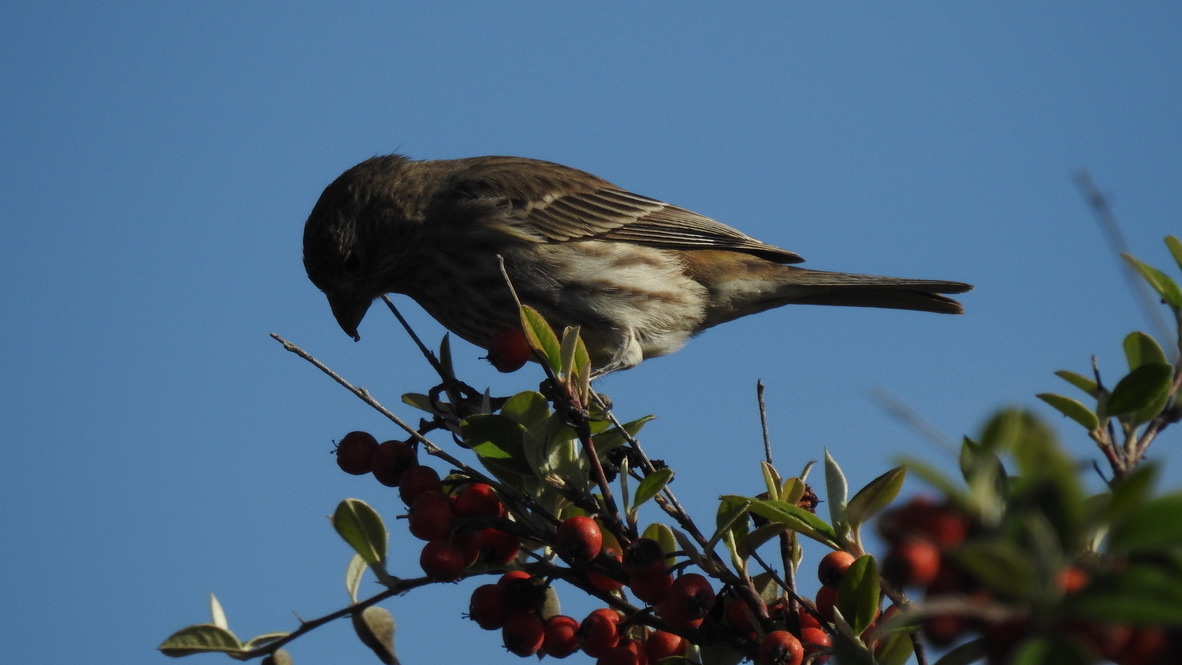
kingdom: Animalia
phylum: Chordata
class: Aves
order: Passeriformes
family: Fringillidae
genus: Haemorhous
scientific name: Haemorhous mexicanus
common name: House finch
